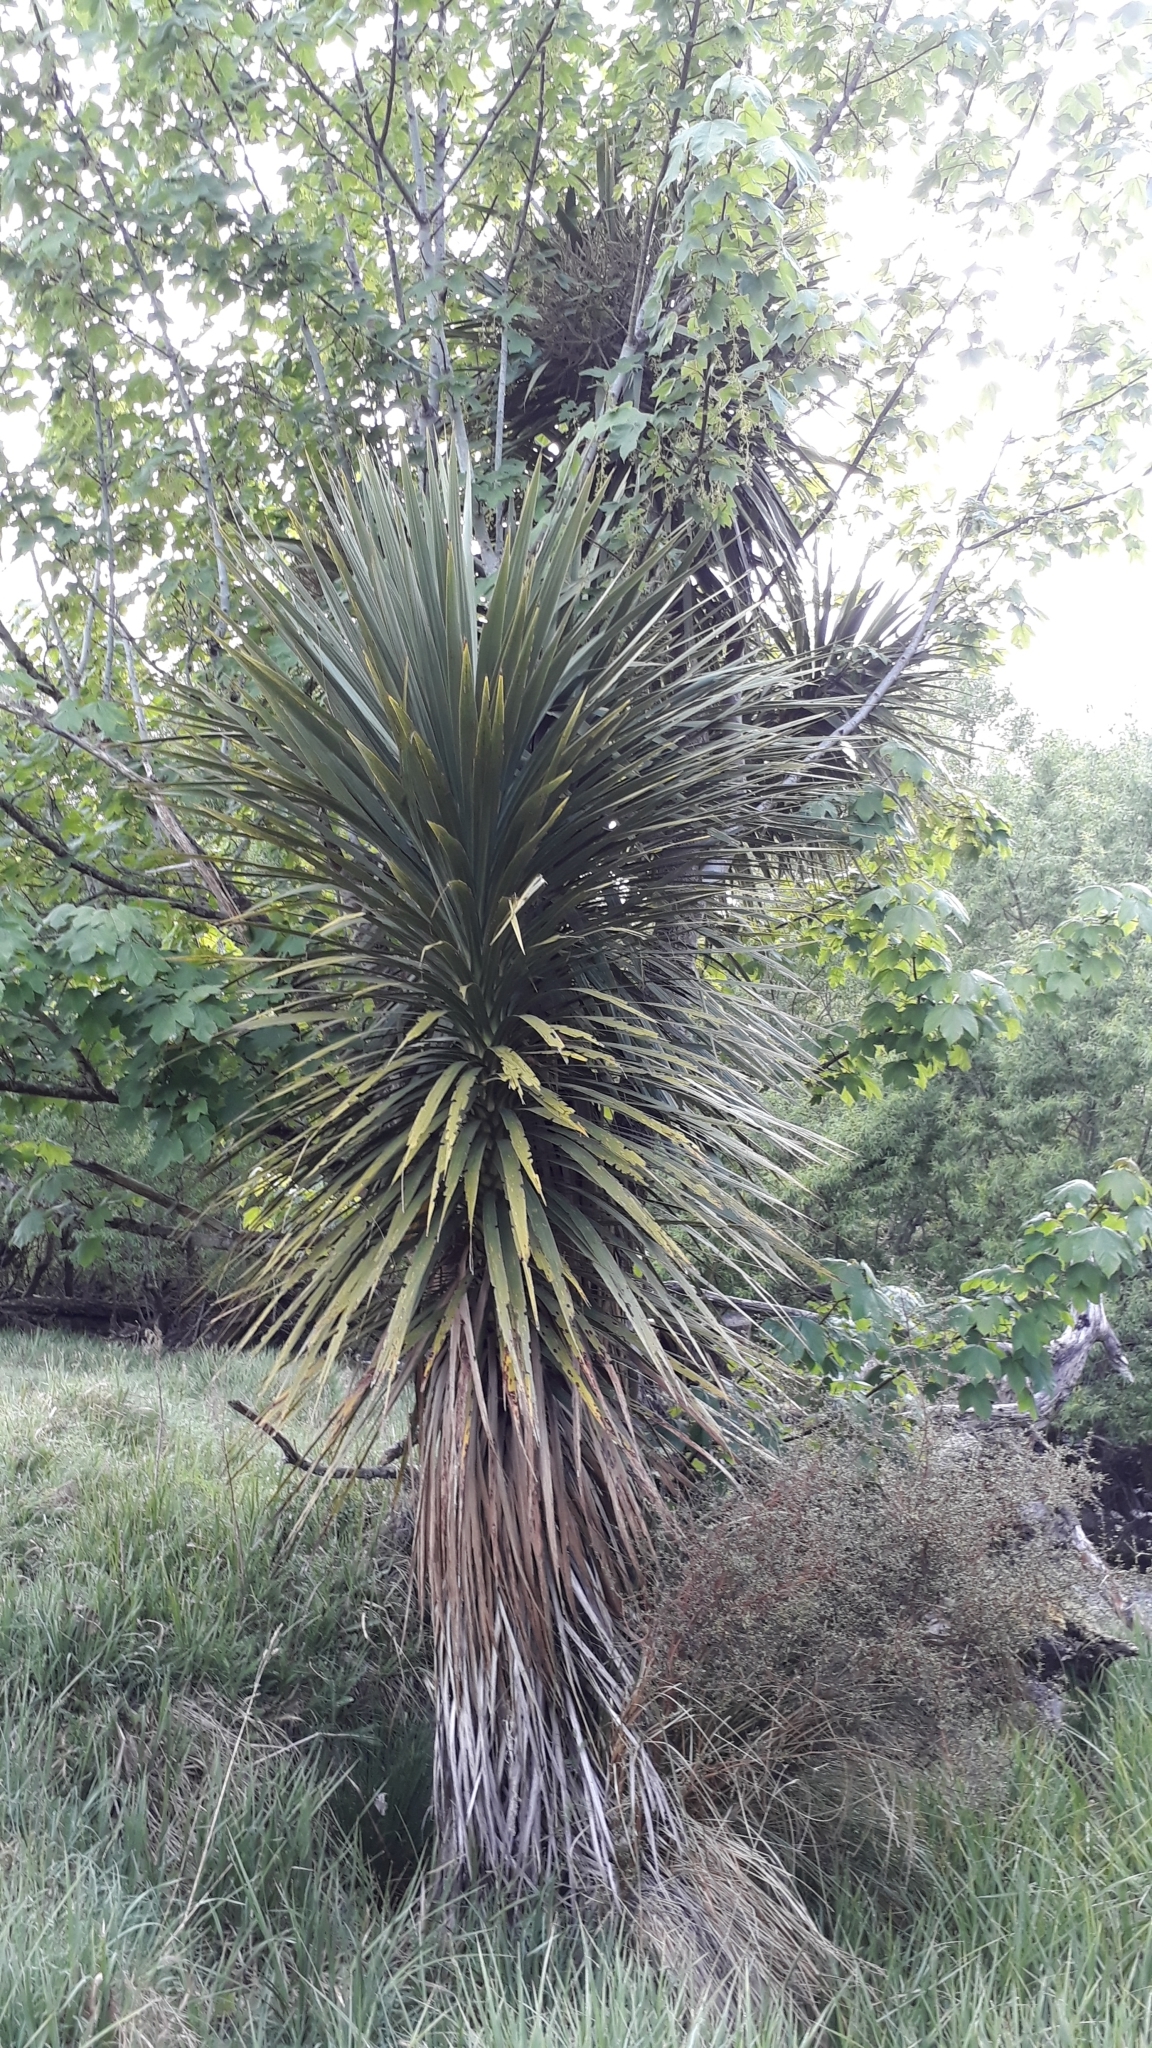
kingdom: Plantae
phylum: Tracheophyta
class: Liliopsida
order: Asparagales
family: Asparagaceae
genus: Cordyline
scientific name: Cordyline australis
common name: Cabbage-palm
